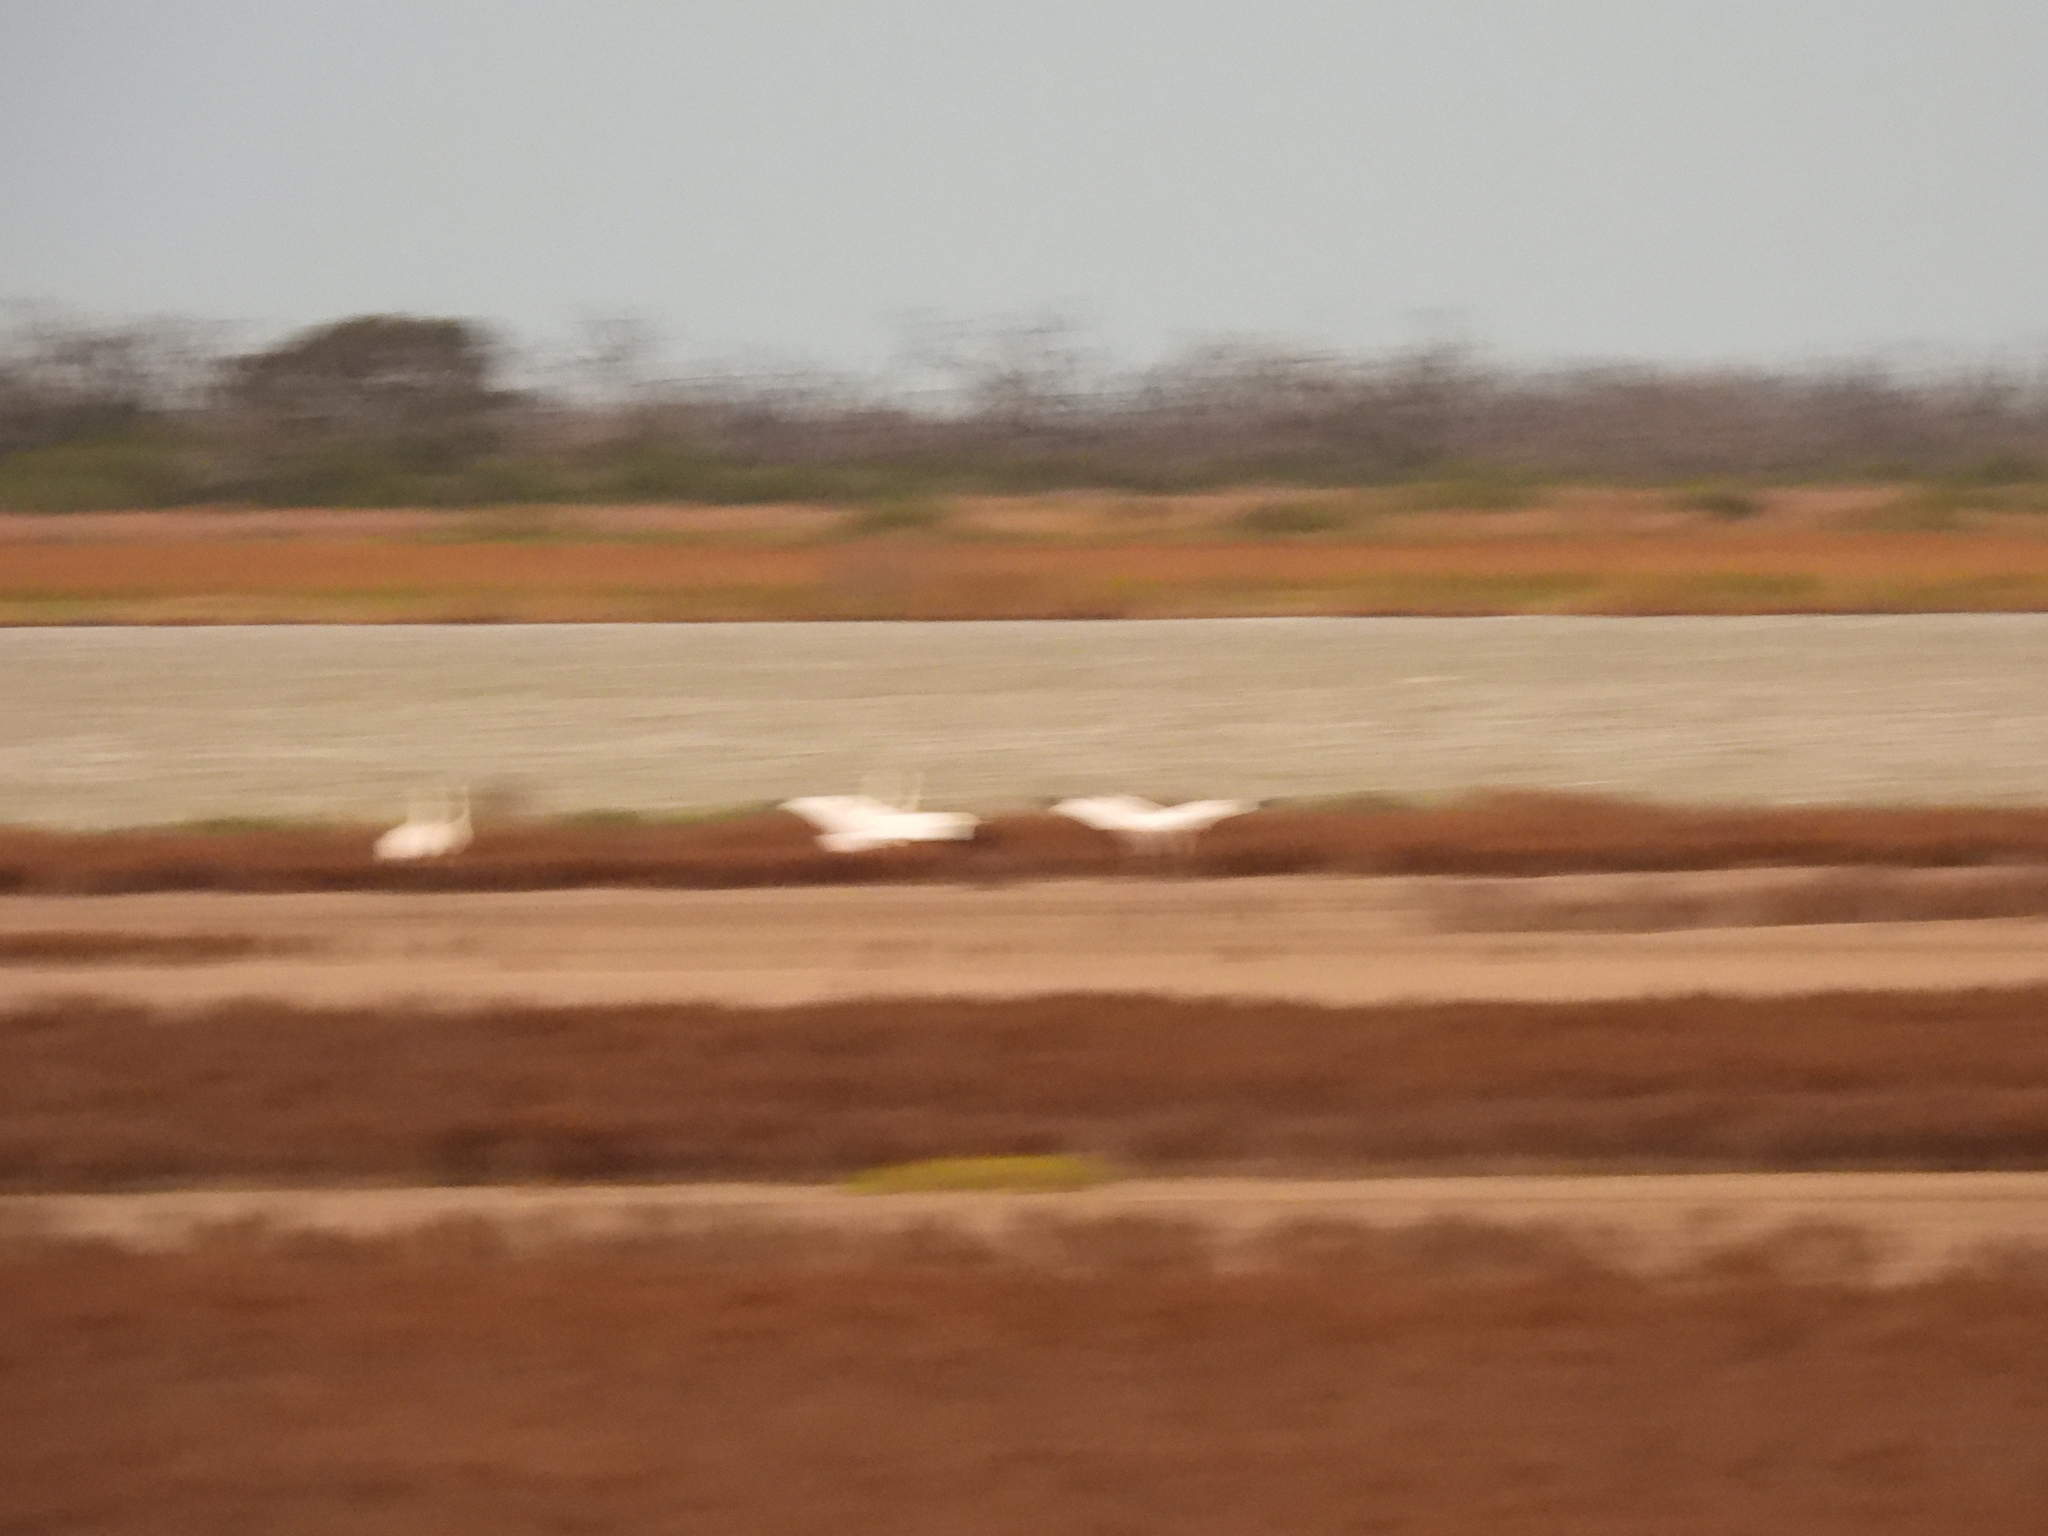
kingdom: Animalia
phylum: Chordata
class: Aves
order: Gruiformes
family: Gruidae
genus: Grus
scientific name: Grus americana
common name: Whooping crane
